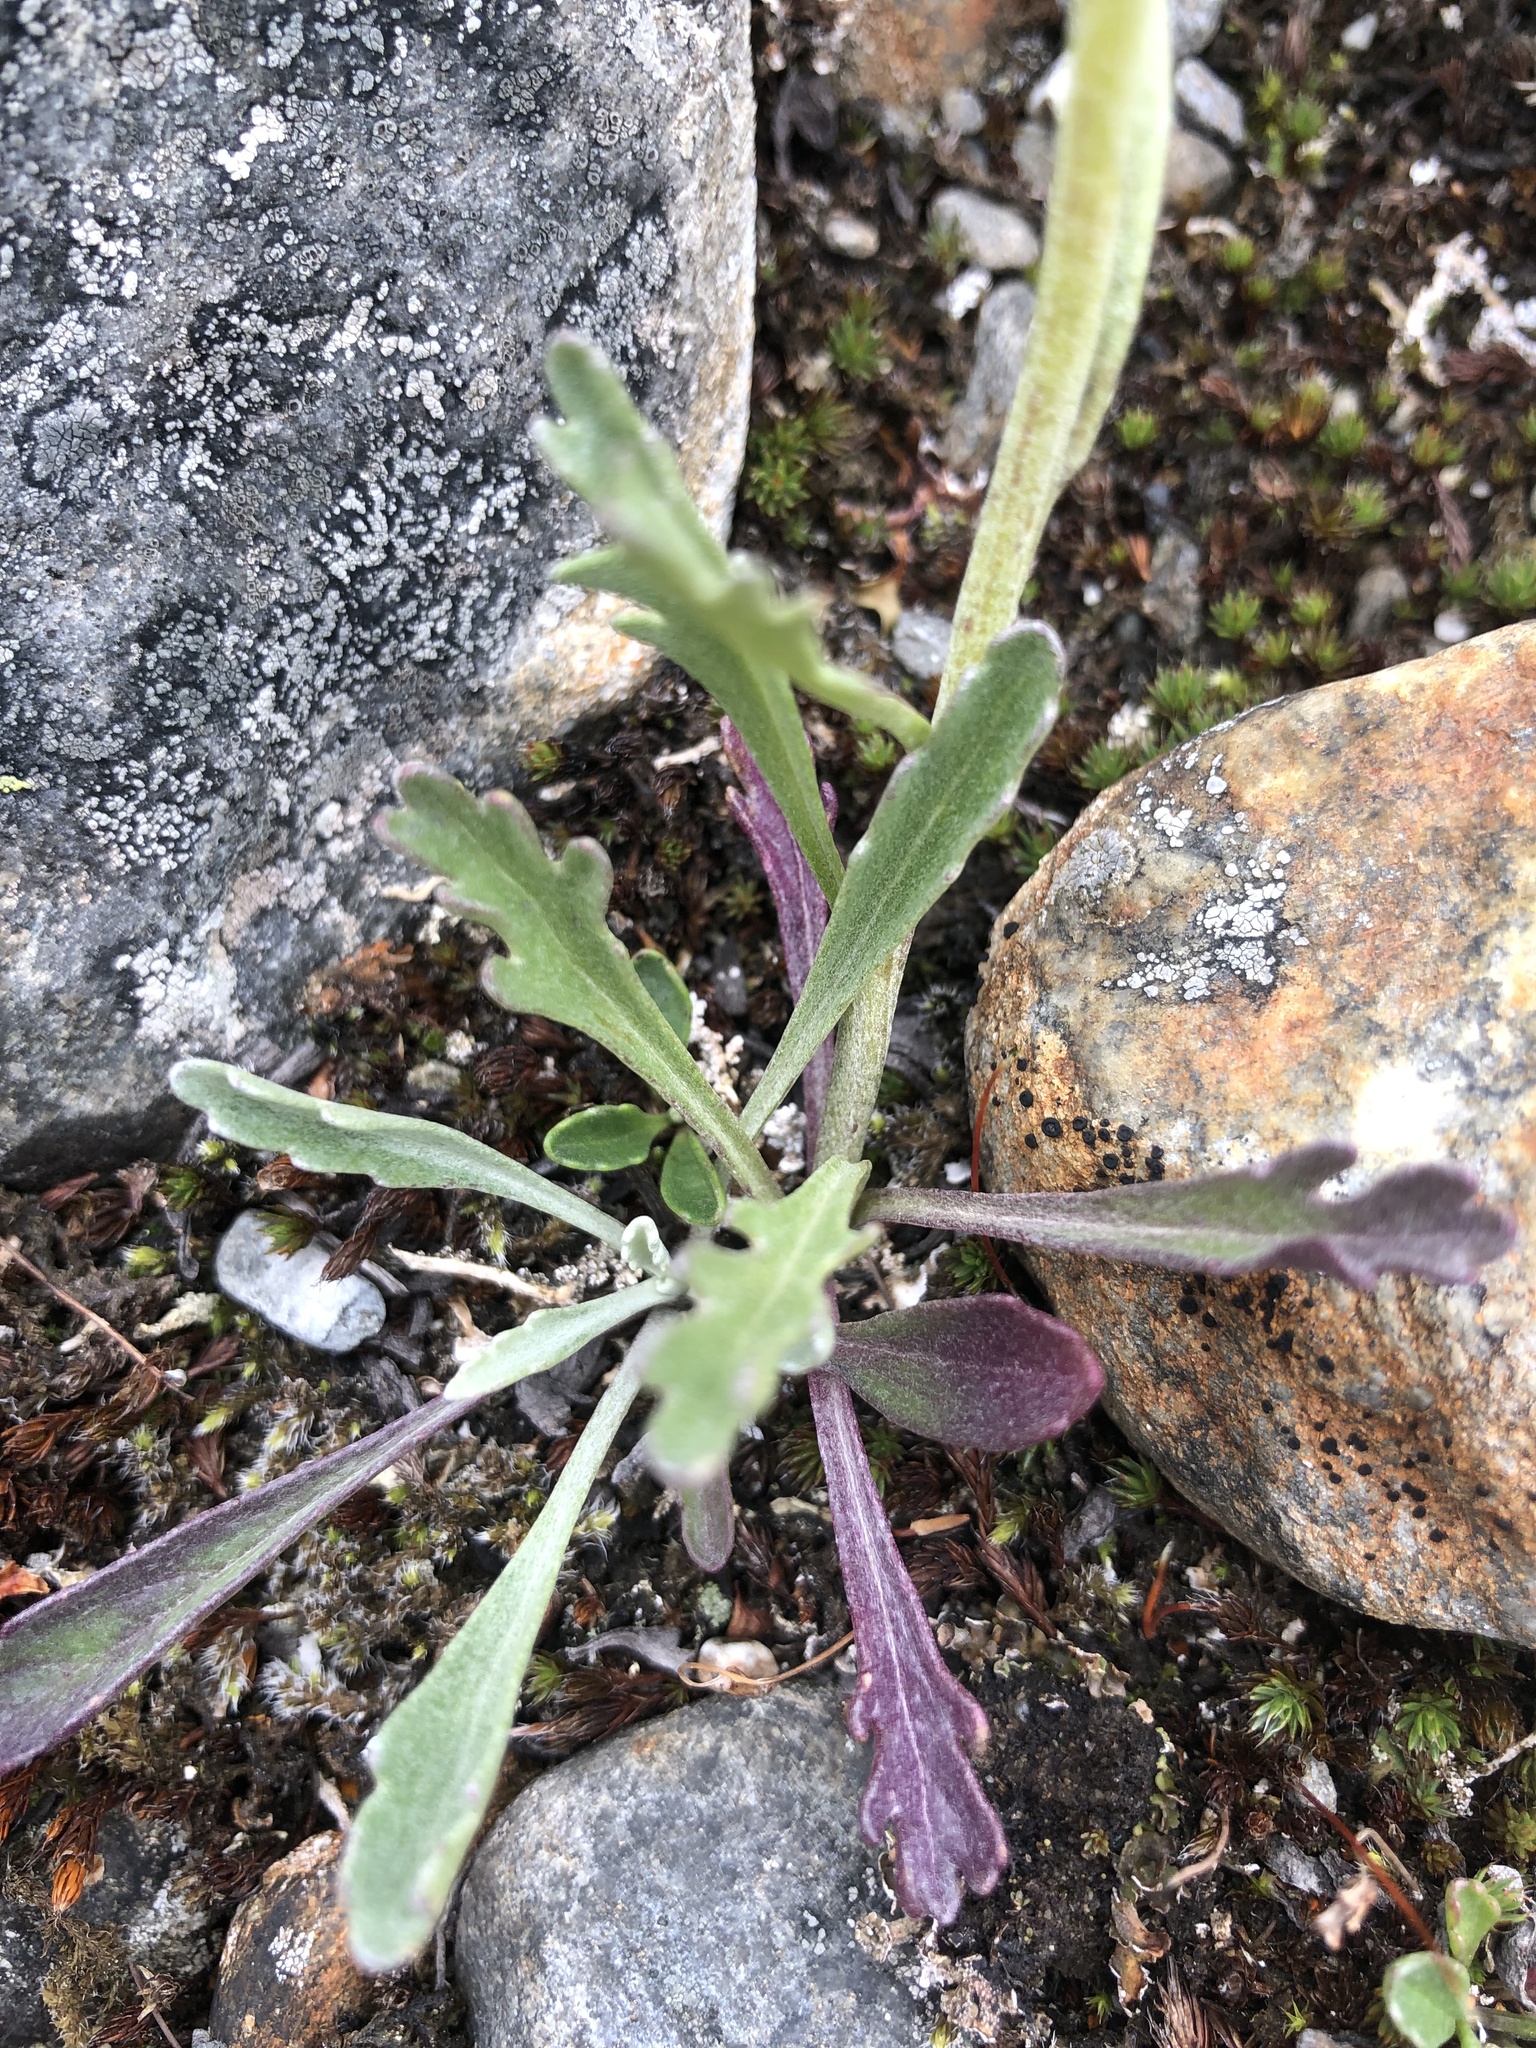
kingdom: Plantae
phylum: Tracheophyta
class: Magnoliopsida
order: Asterales
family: Asteraceae
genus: Jacobaea
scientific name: Jacobaea carniolica
